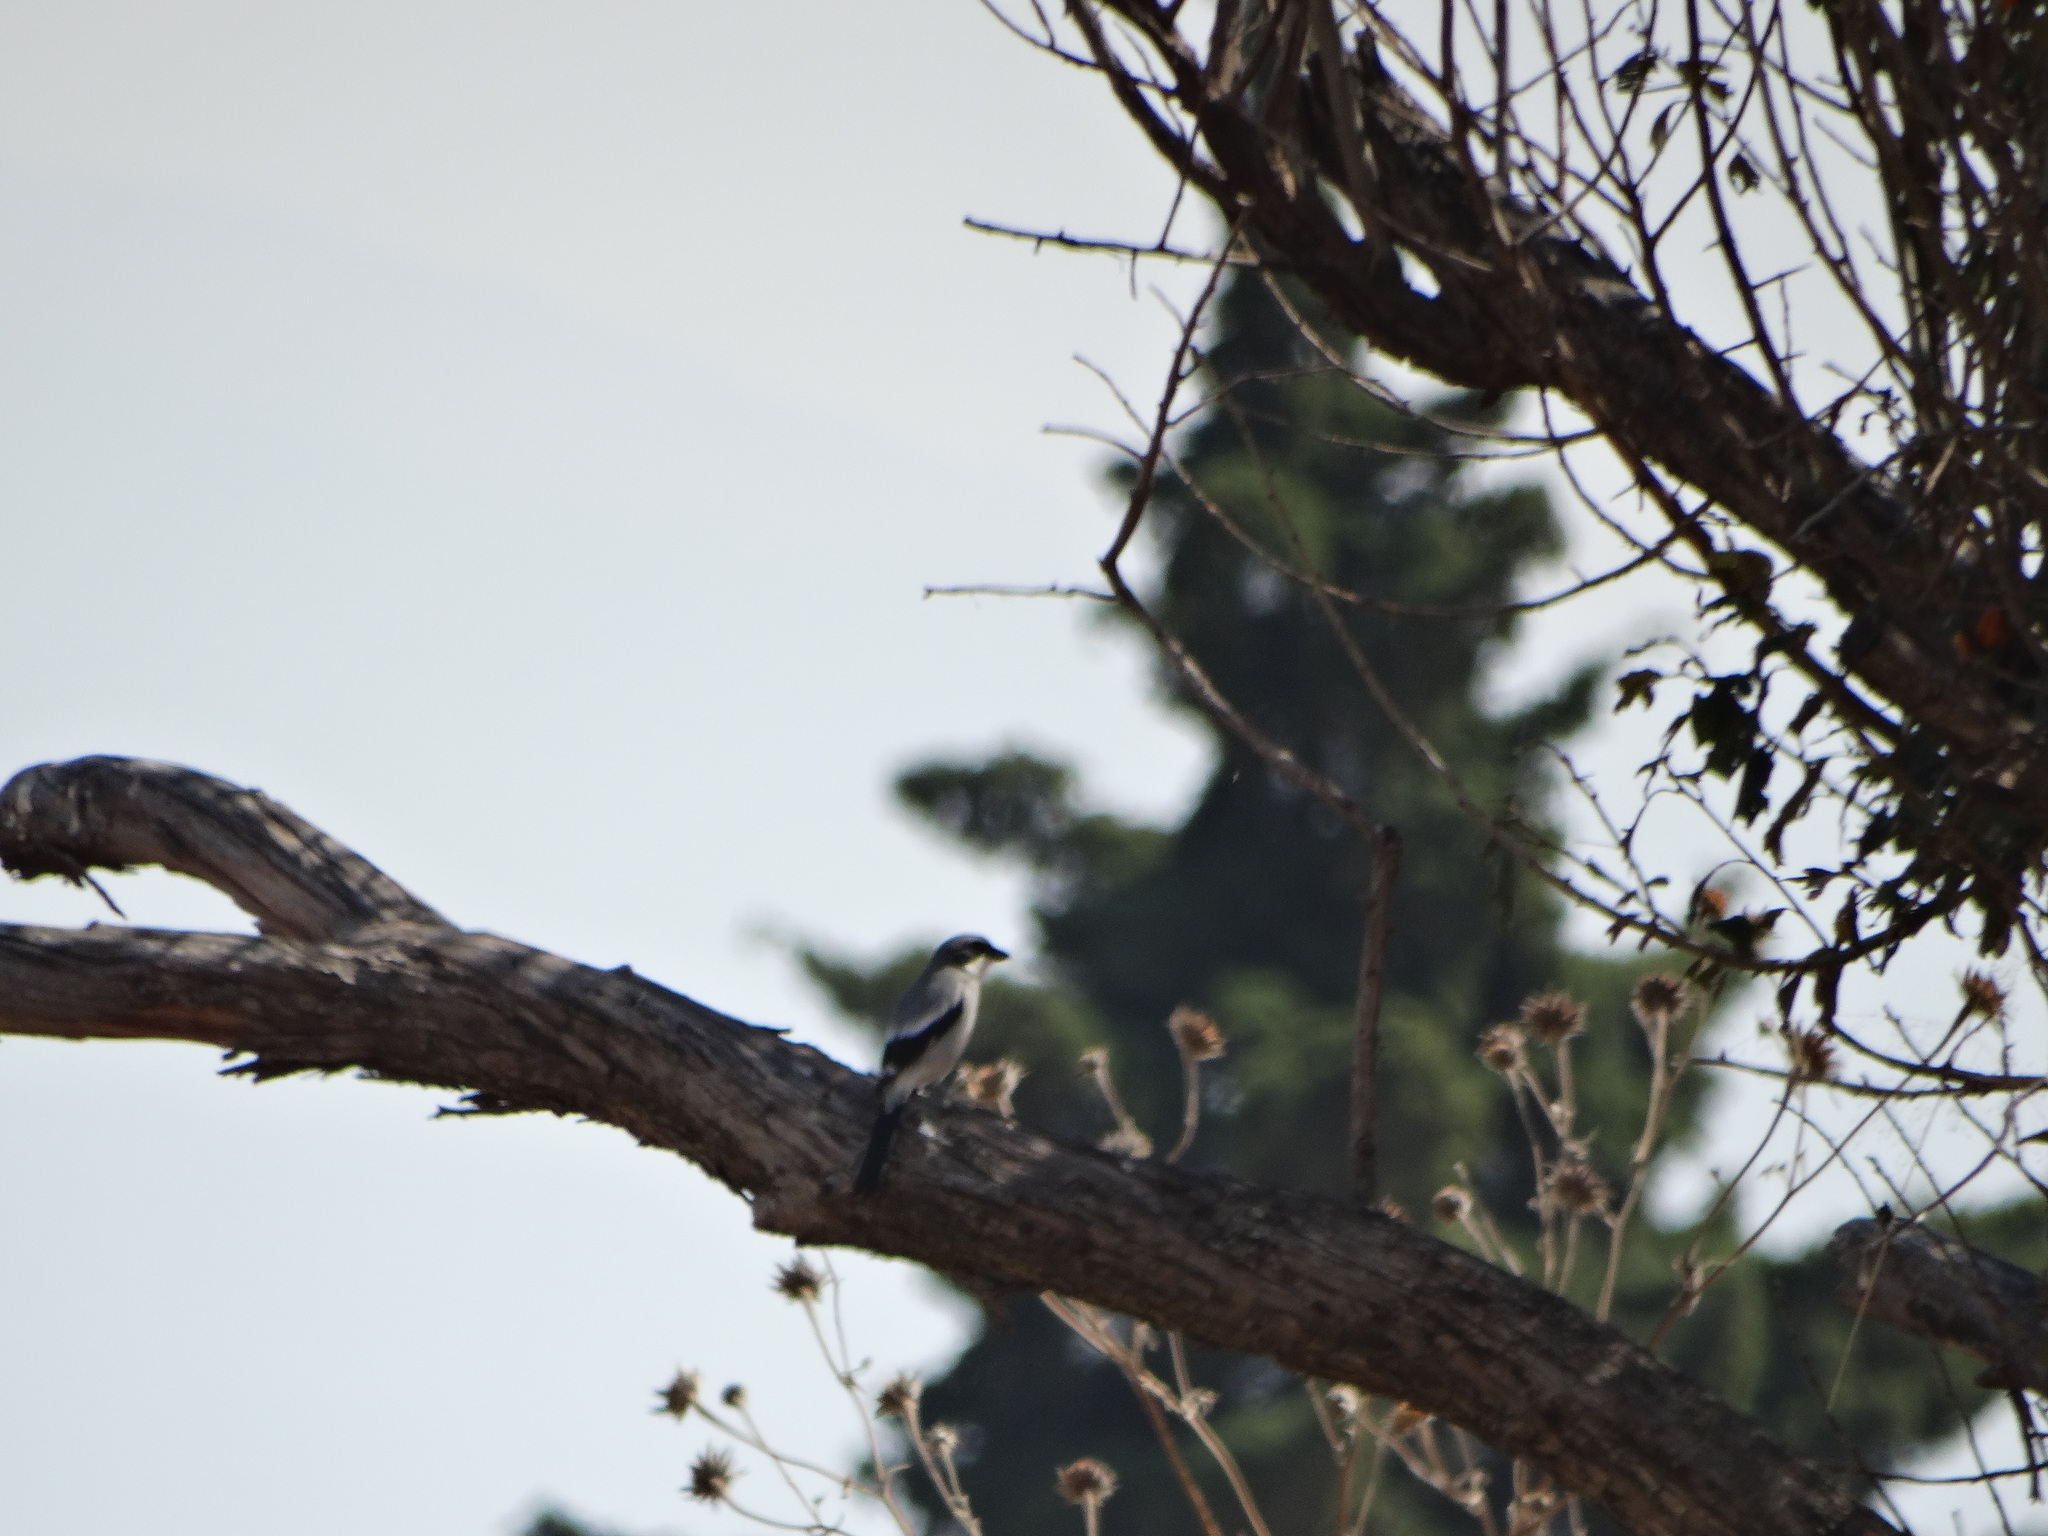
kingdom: Animalia
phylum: Chordata
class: Aves
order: Passeriformes
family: Laniidae
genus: Lanius
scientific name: Lanius ludovicianus
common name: Loggerhead shrike
